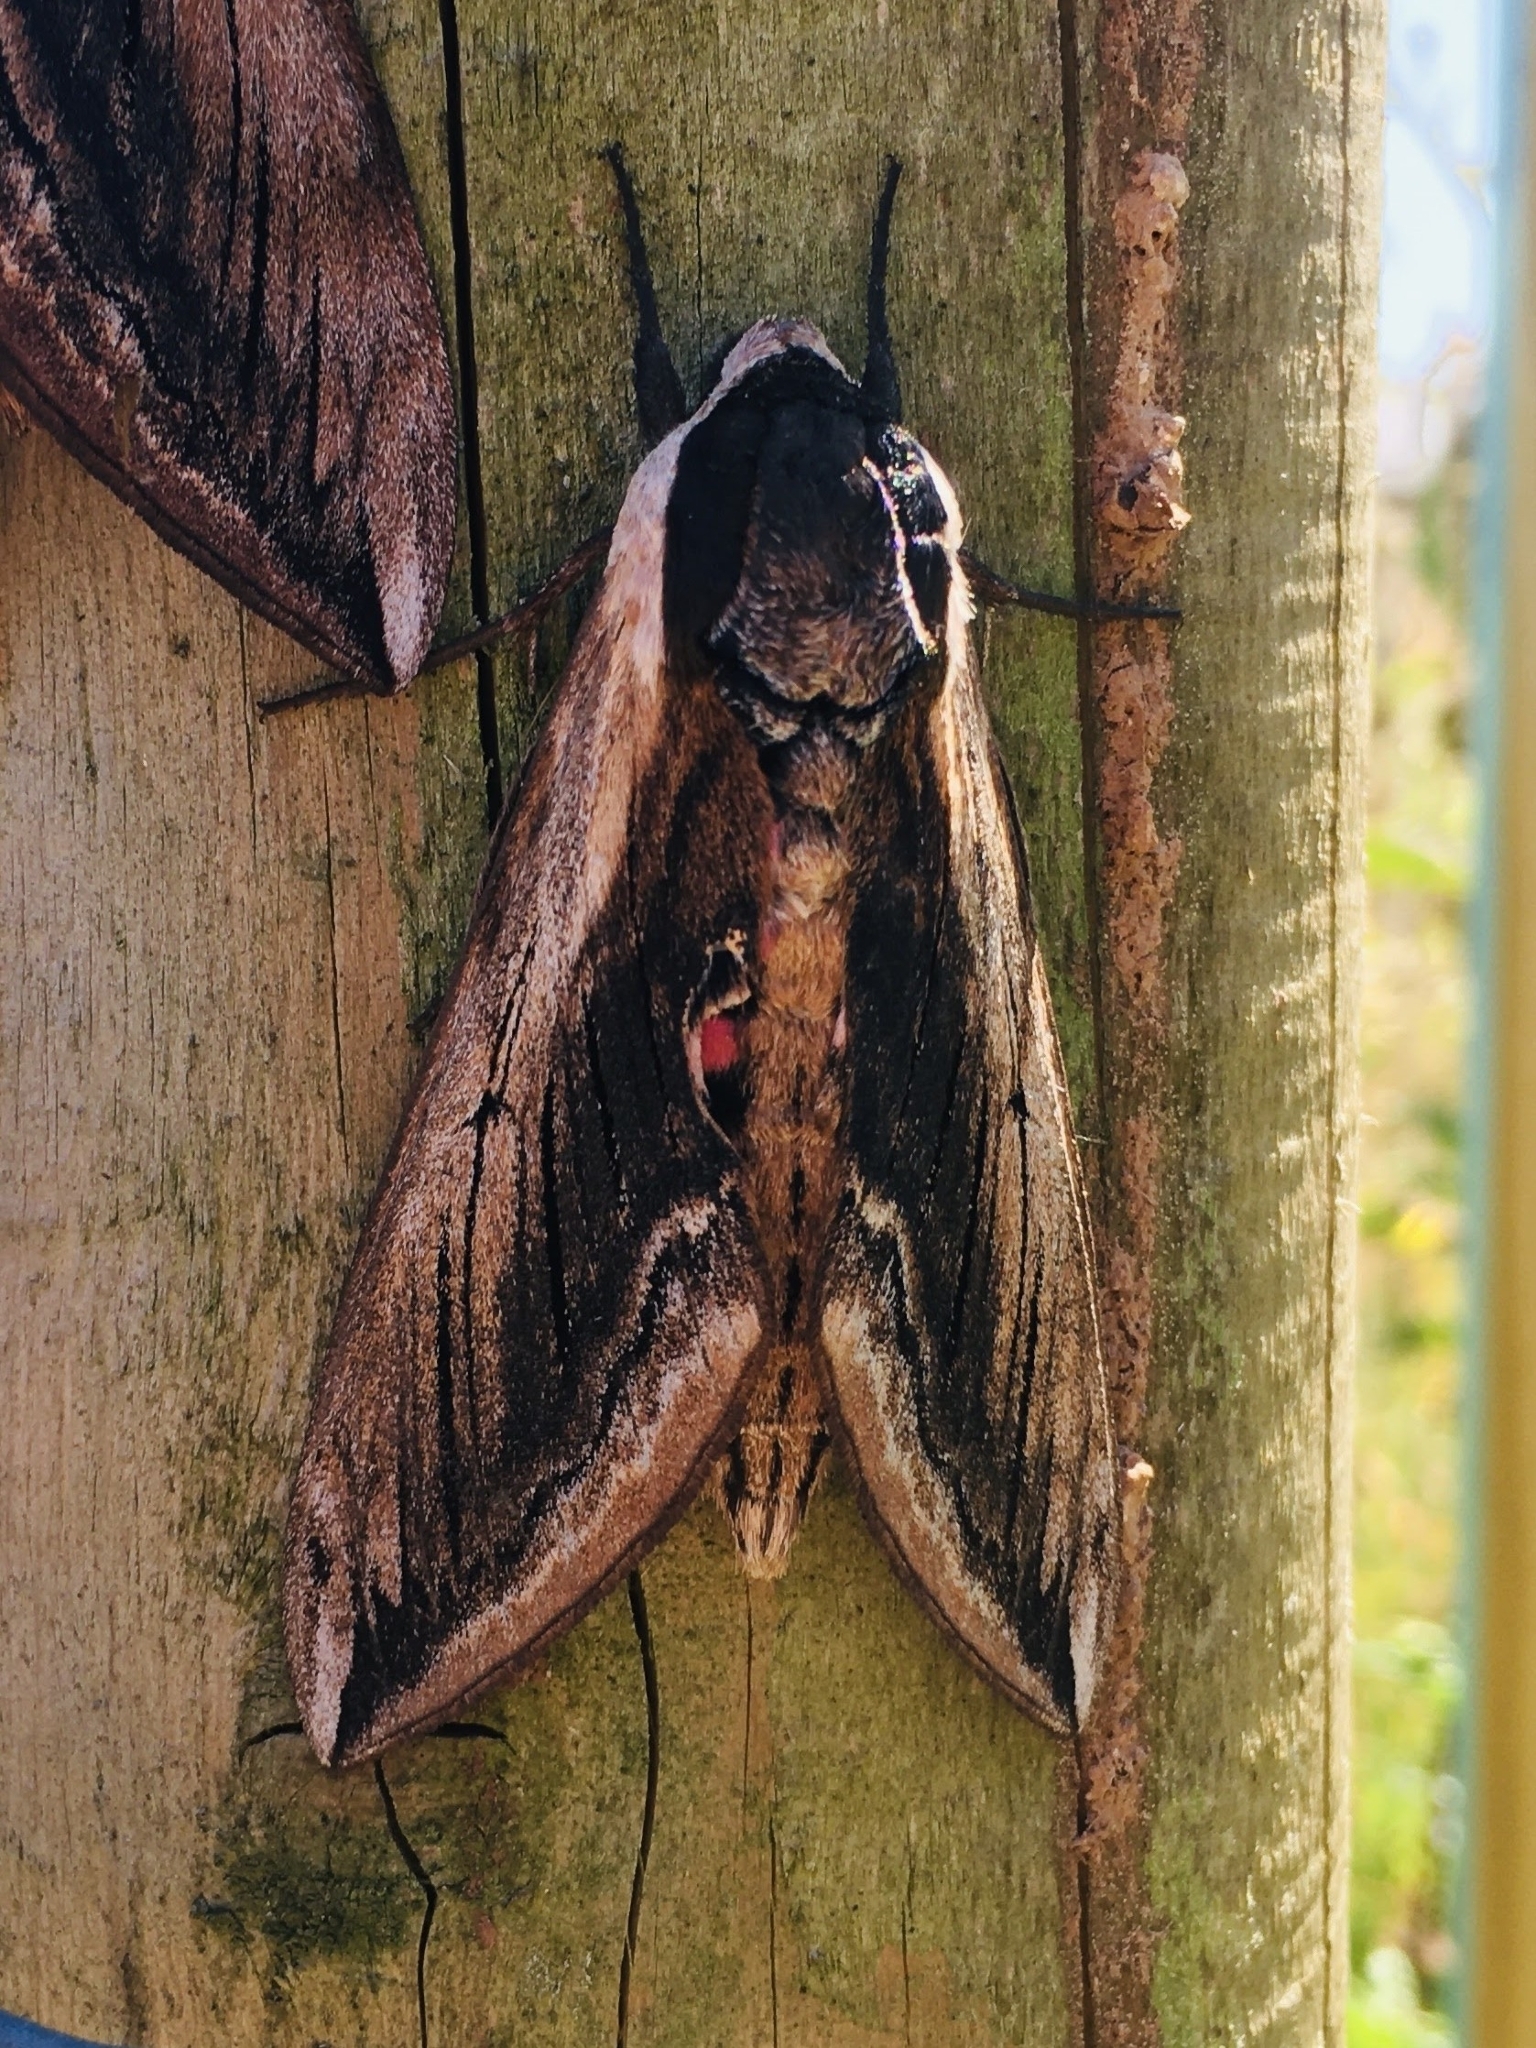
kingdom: Animalia
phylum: Arthropoda
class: Insecta
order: Lepidoptera
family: Sphingidae
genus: Sphinx
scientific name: Sphinx ligustri
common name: Privet hawk-moth
